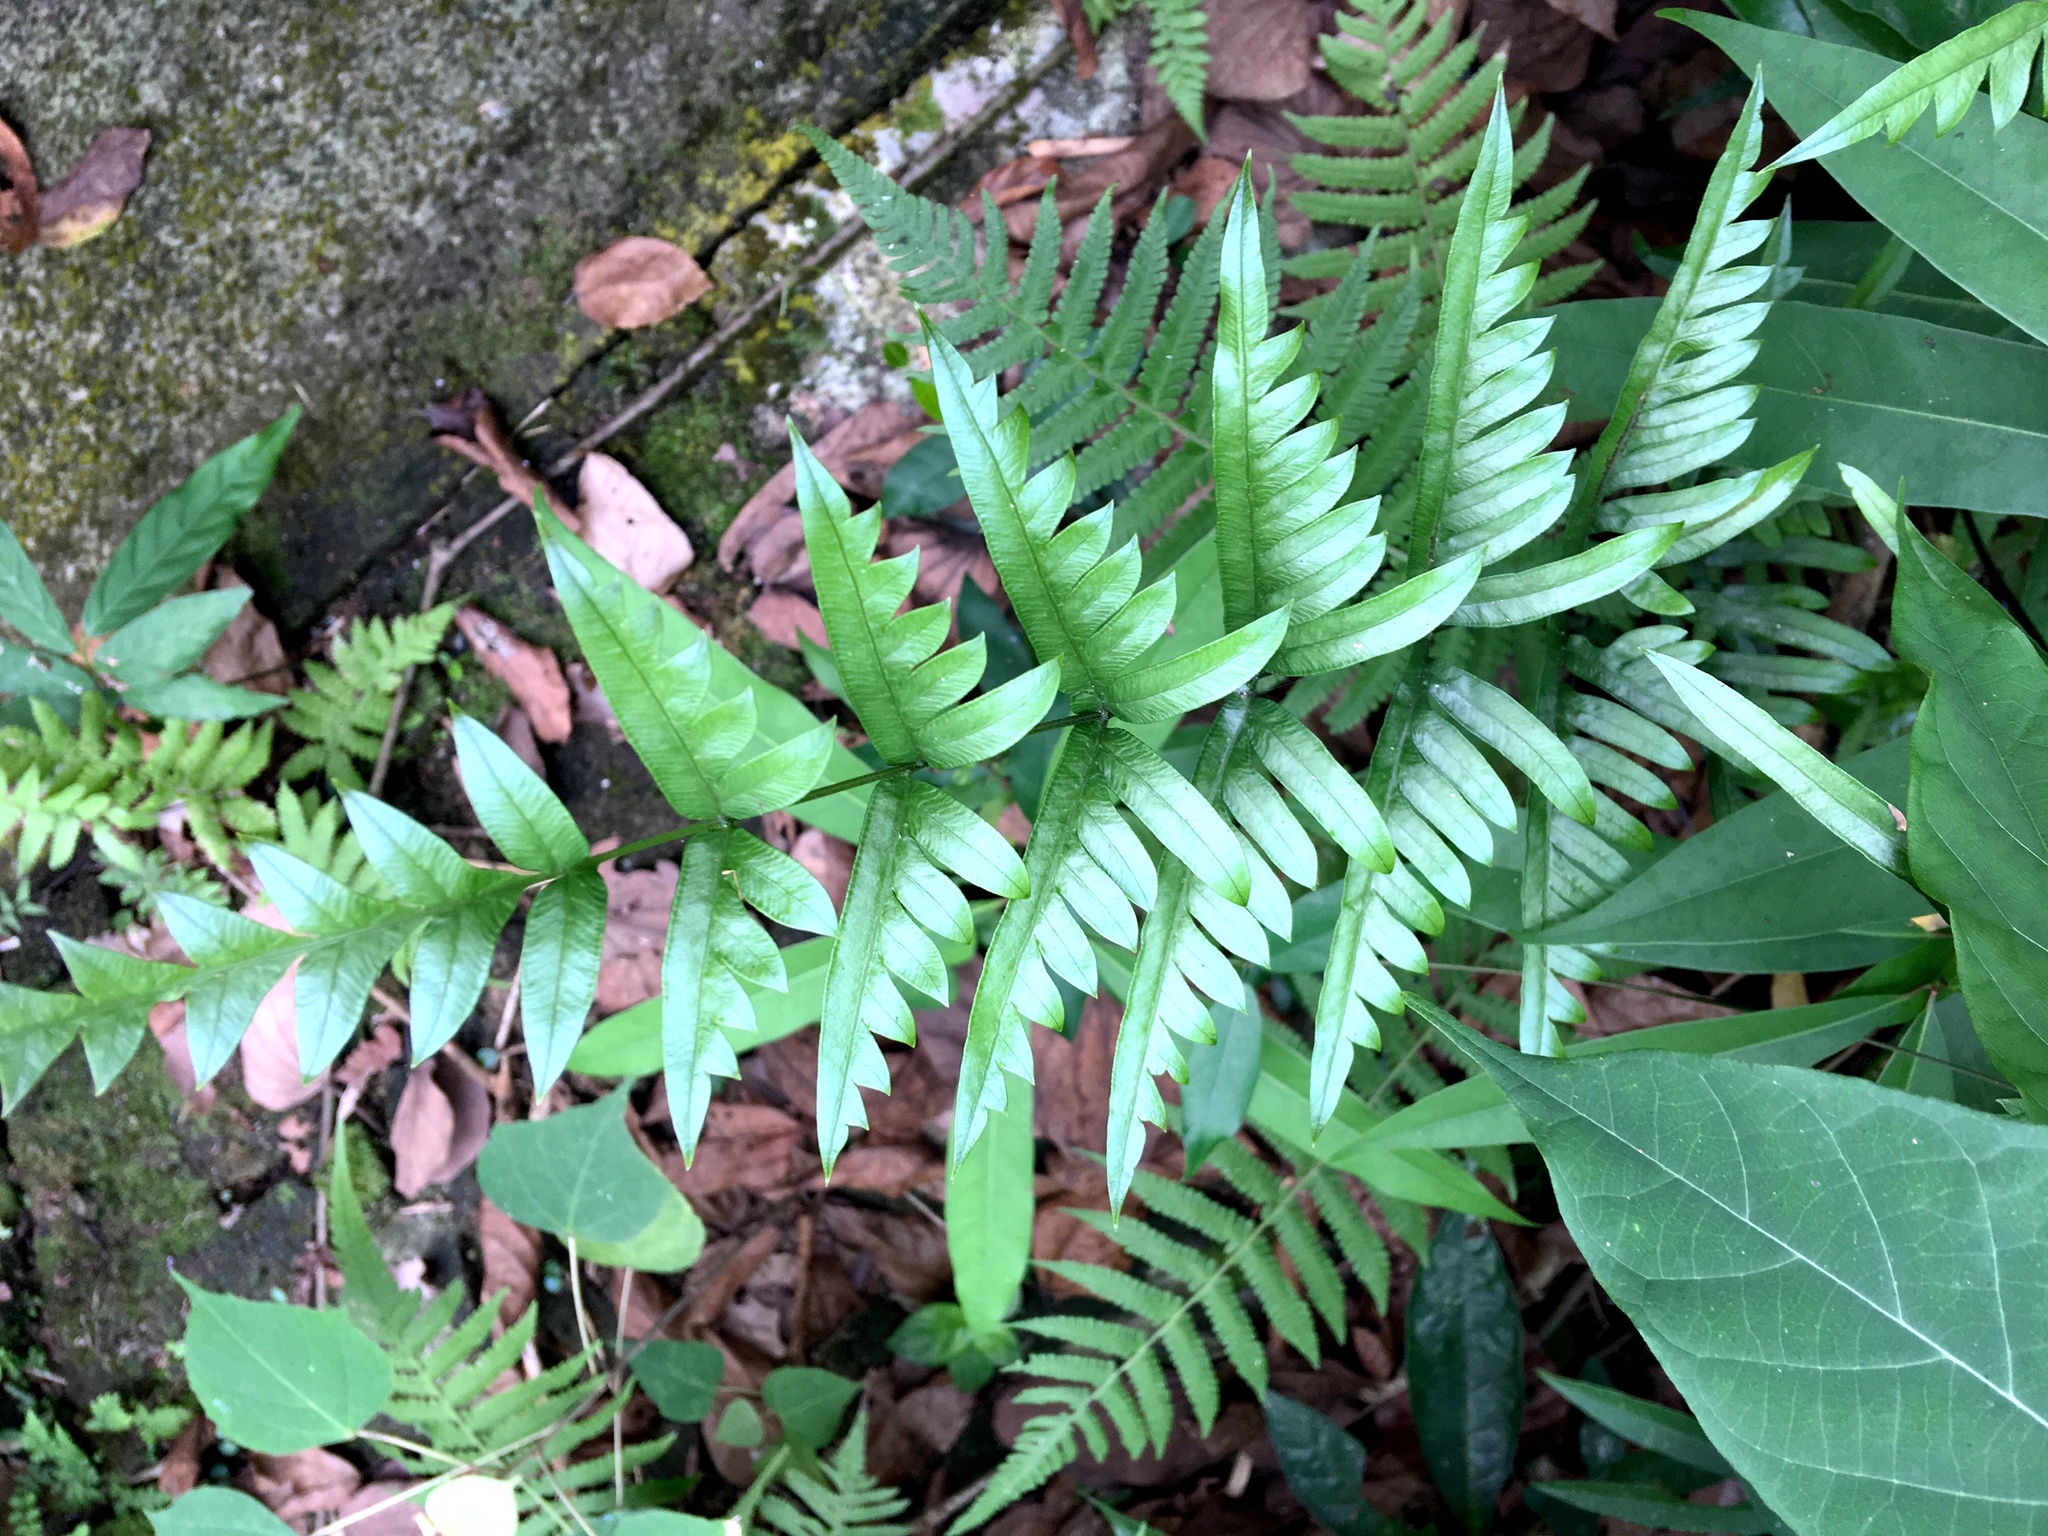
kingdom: Plantae
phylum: Tracheophyta
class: Polypodiopsida
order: Polypodiales
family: Pteridaceae
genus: Pteris
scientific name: Pteris semipinnata
